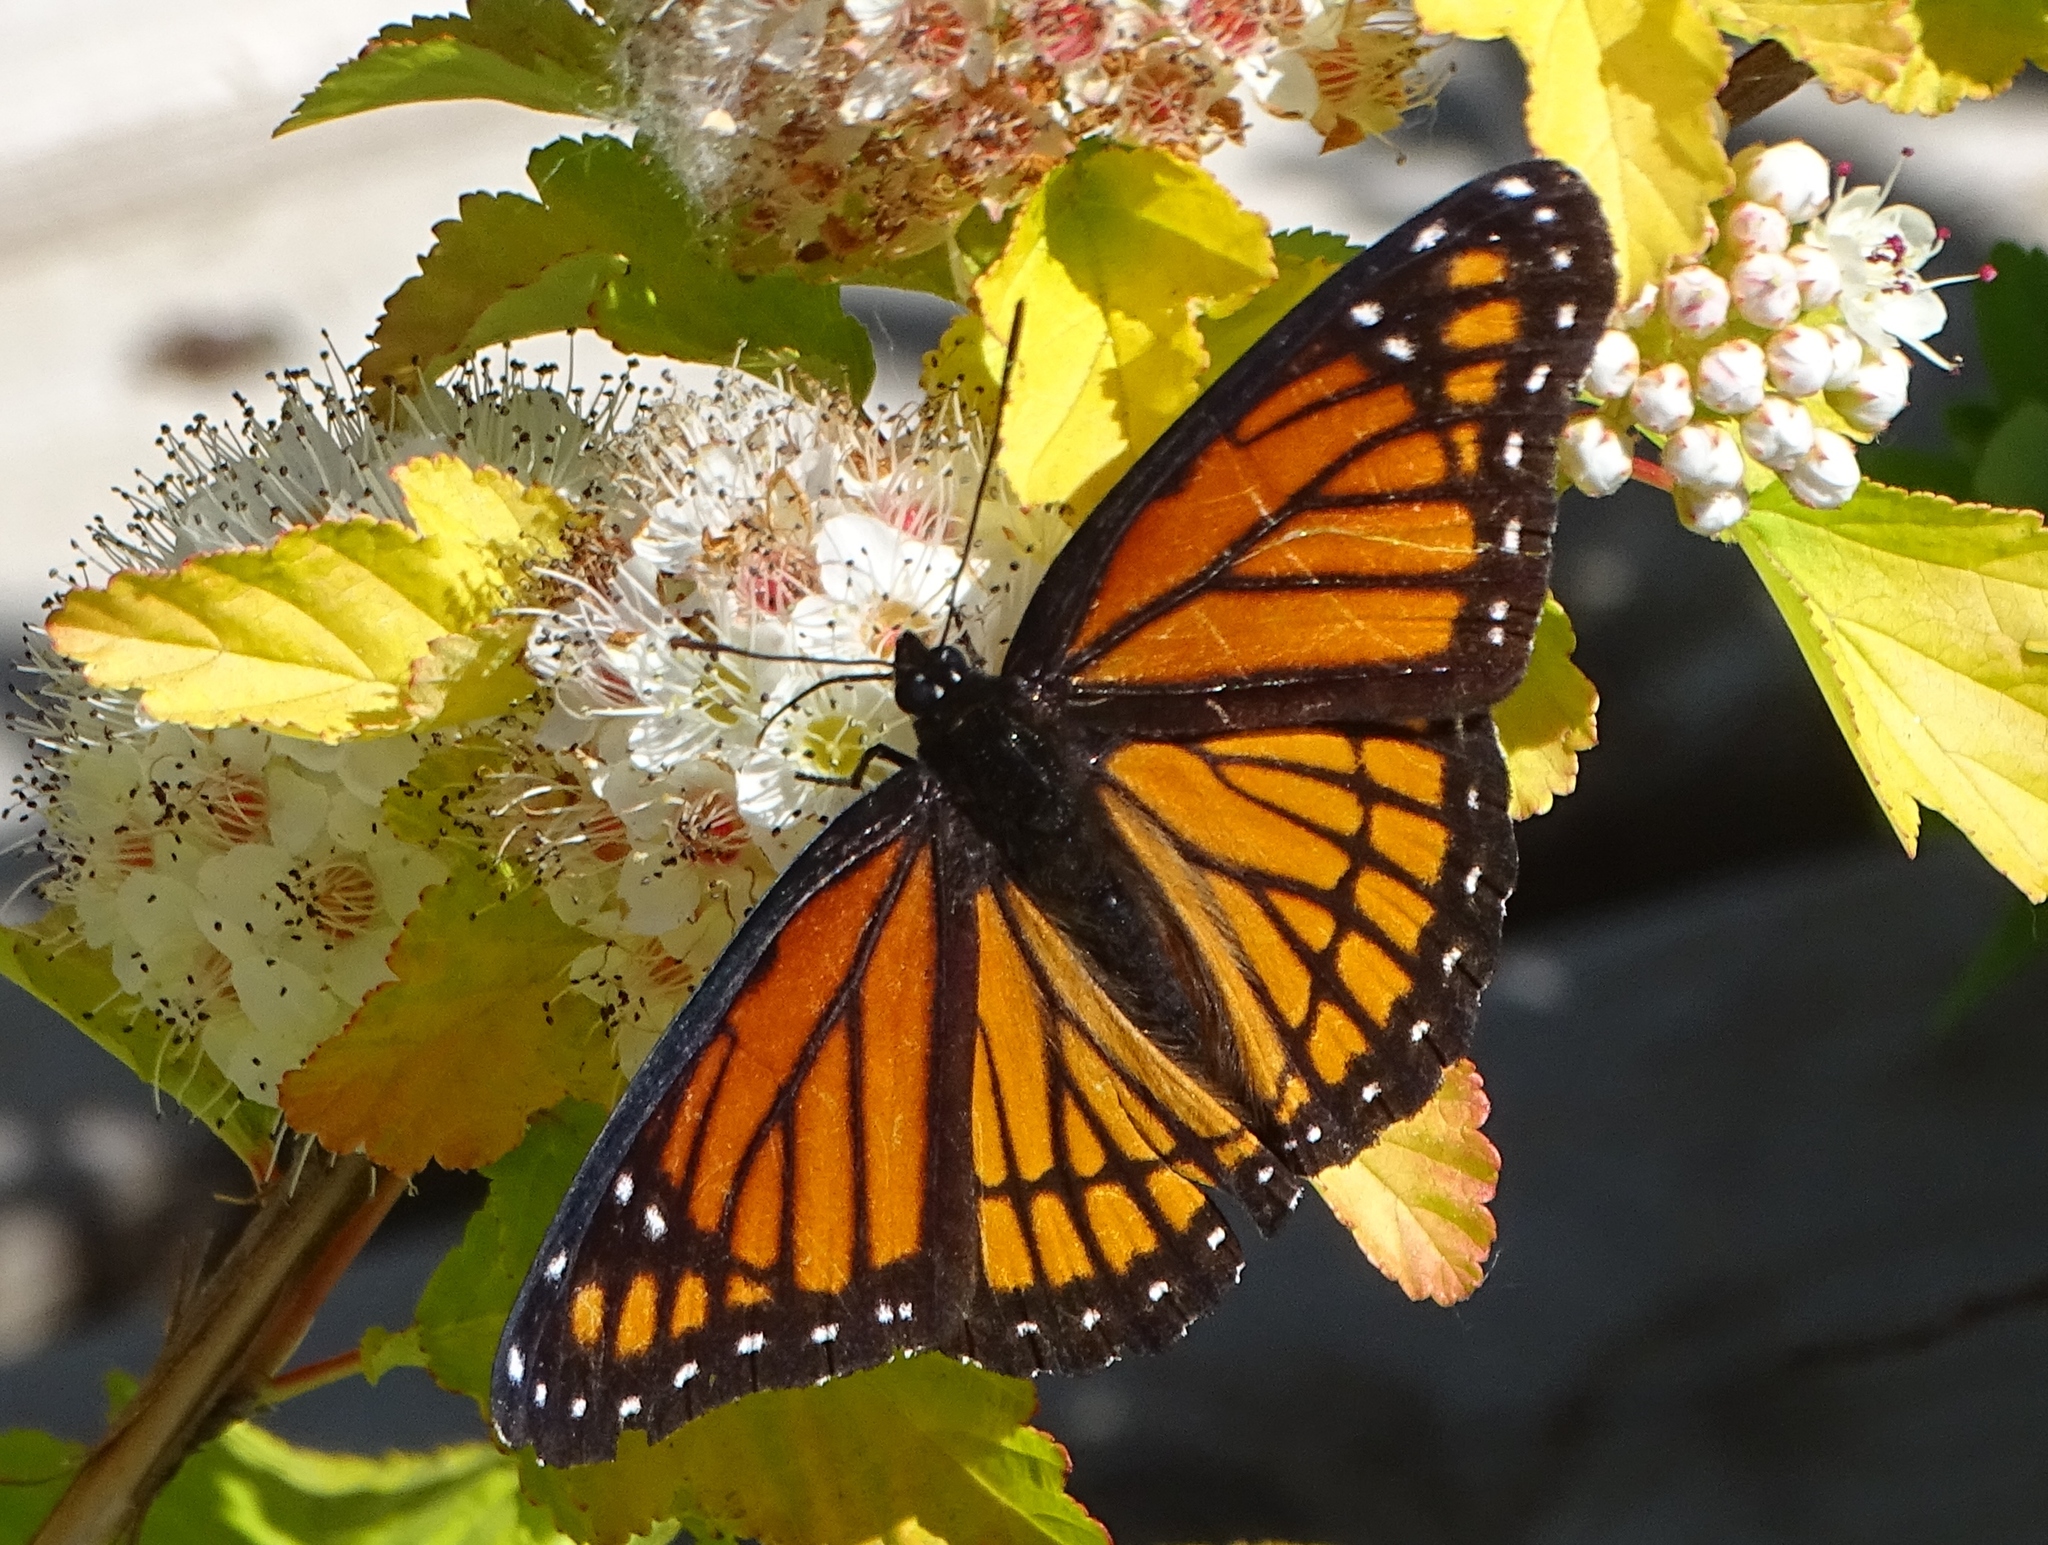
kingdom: Animalia
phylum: Arthropoda
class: Insecta
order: Lepidoptera
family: Nymphalidae
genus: Limenitis
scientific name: Limenitis archippus
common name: Viceroy
